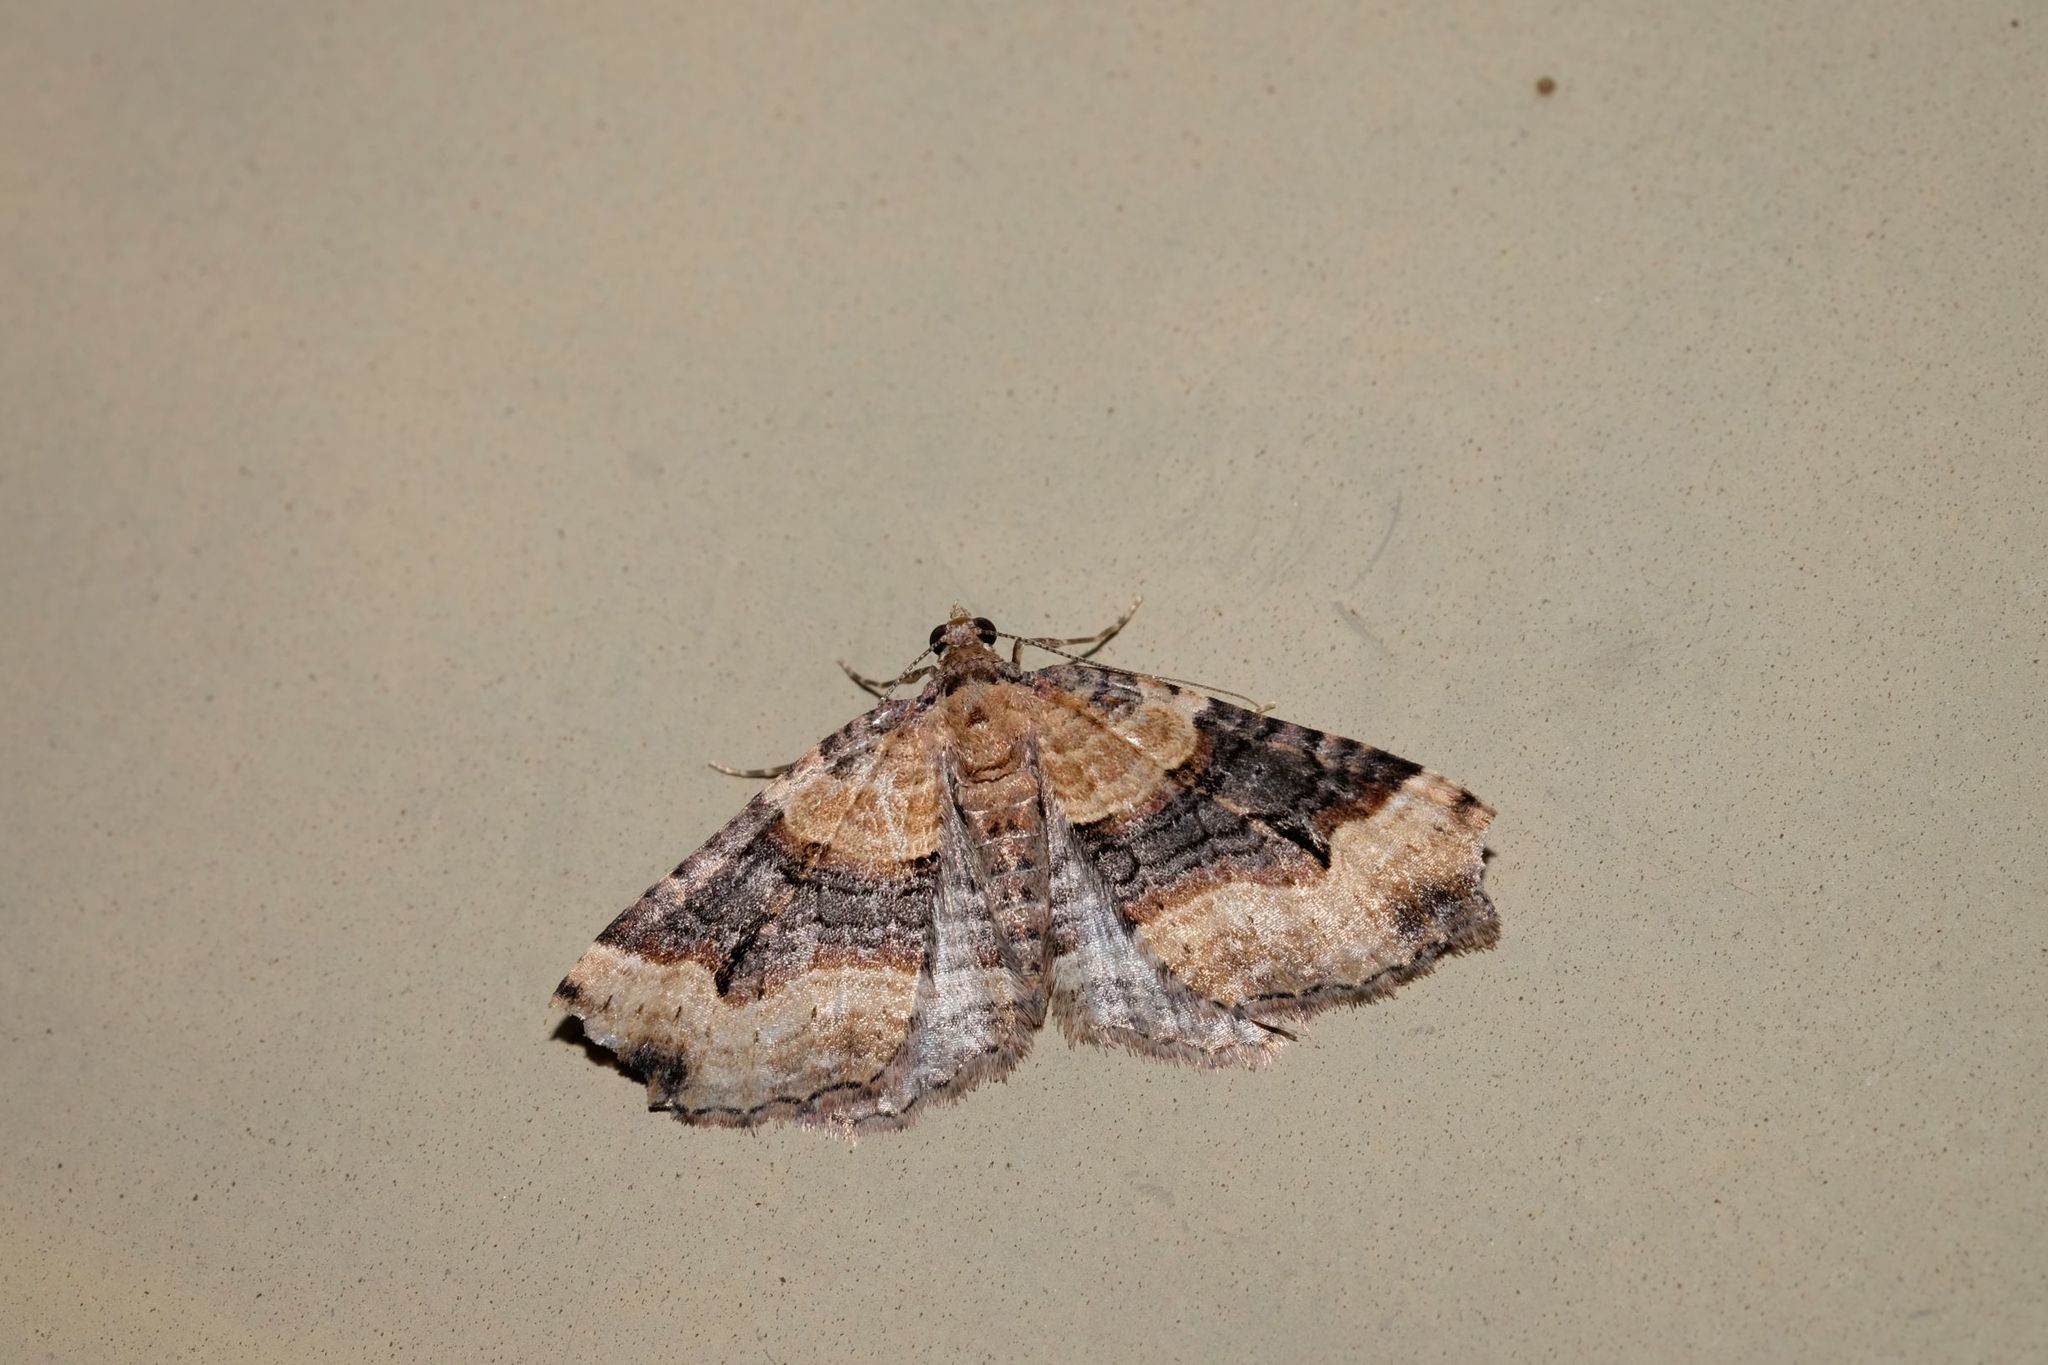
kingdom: Animalia
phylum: Arthropoda
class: Insecta
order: Lepidoptera
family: Geometridae
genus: Epyaxa
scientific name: Epyaxa subidaria
